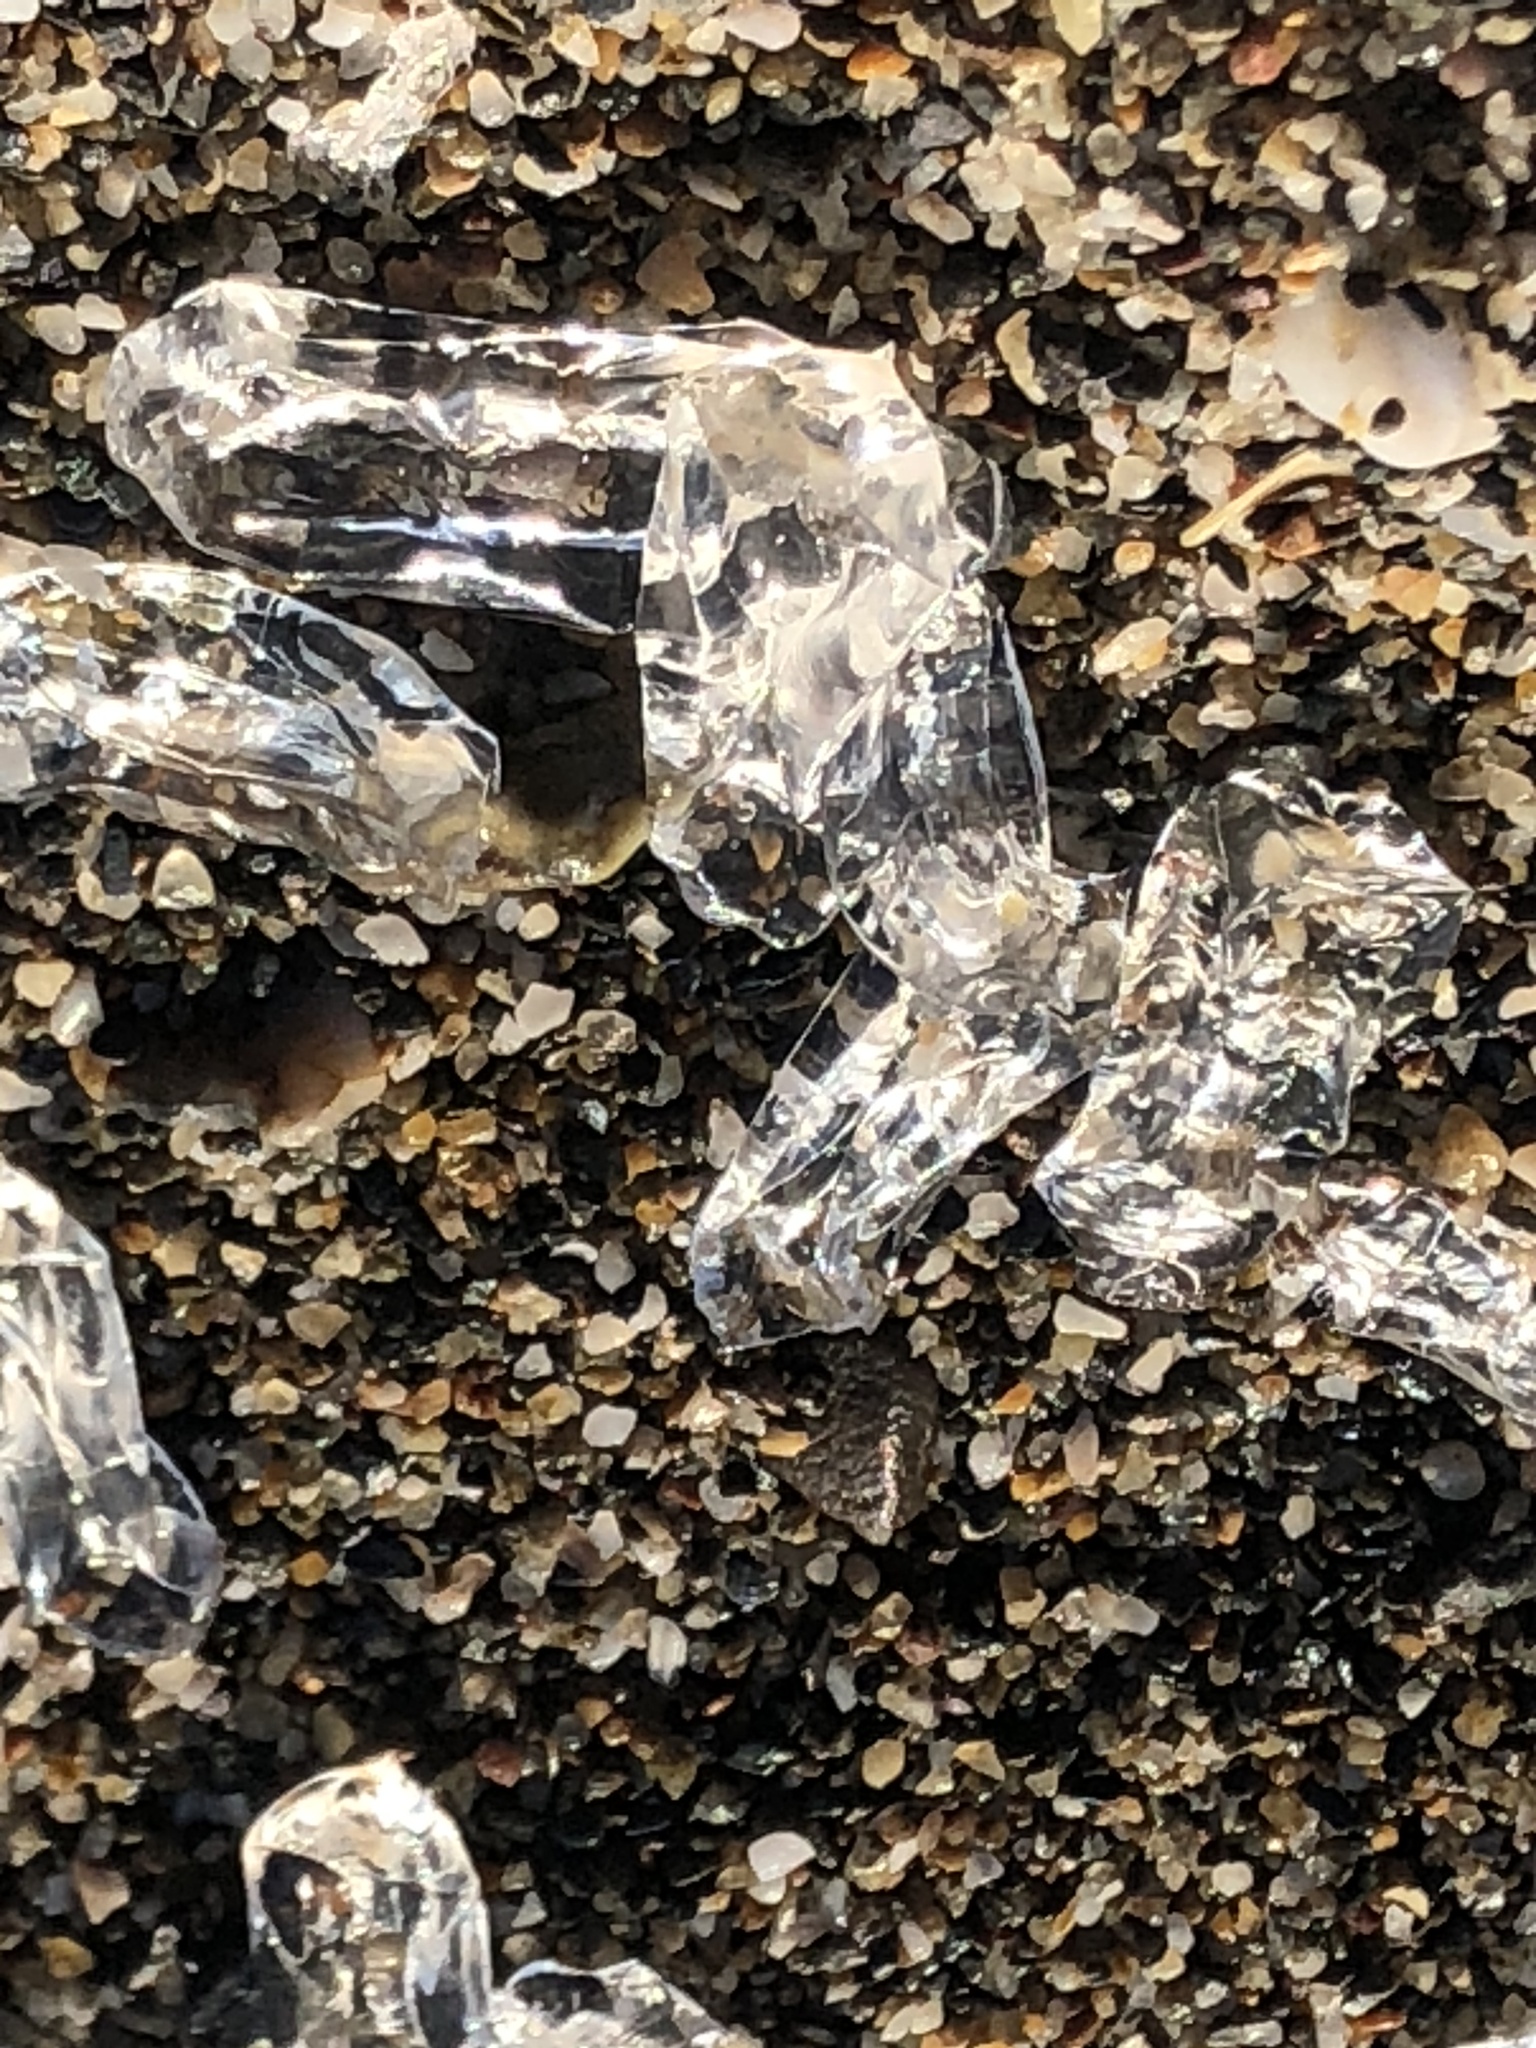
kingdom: Animalia
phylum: Mollusca
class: Gastropoda
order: Pteropoda
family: Cymbuliidae
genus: Cymbulia
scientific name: Cymbulia peronii
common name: Sword of venus
